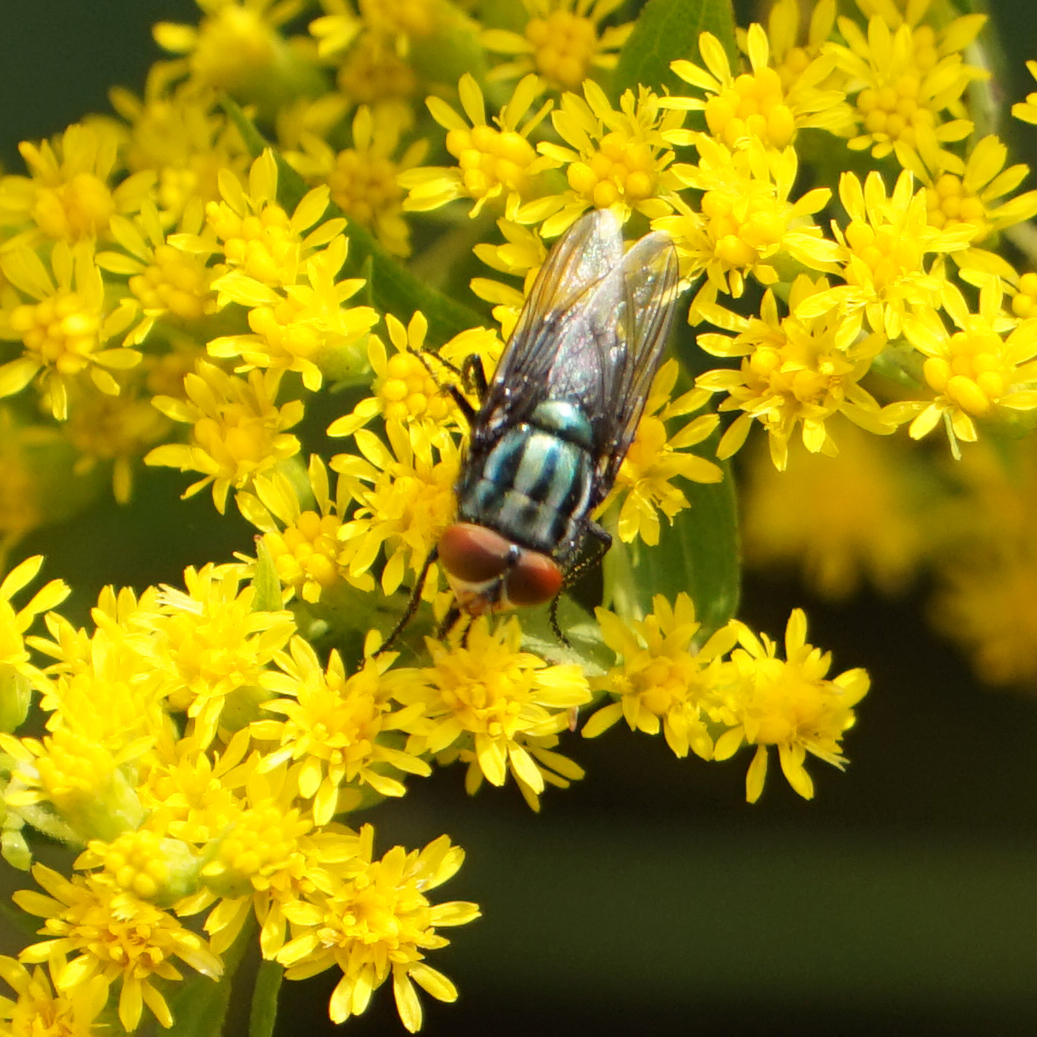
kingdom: Animalia
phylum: Arthropoda
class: Insecta
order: Diptera
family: Calliphoridae
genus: Cochliomyia
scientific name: Cochliomyia macellaria
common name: Secondary screwworm
